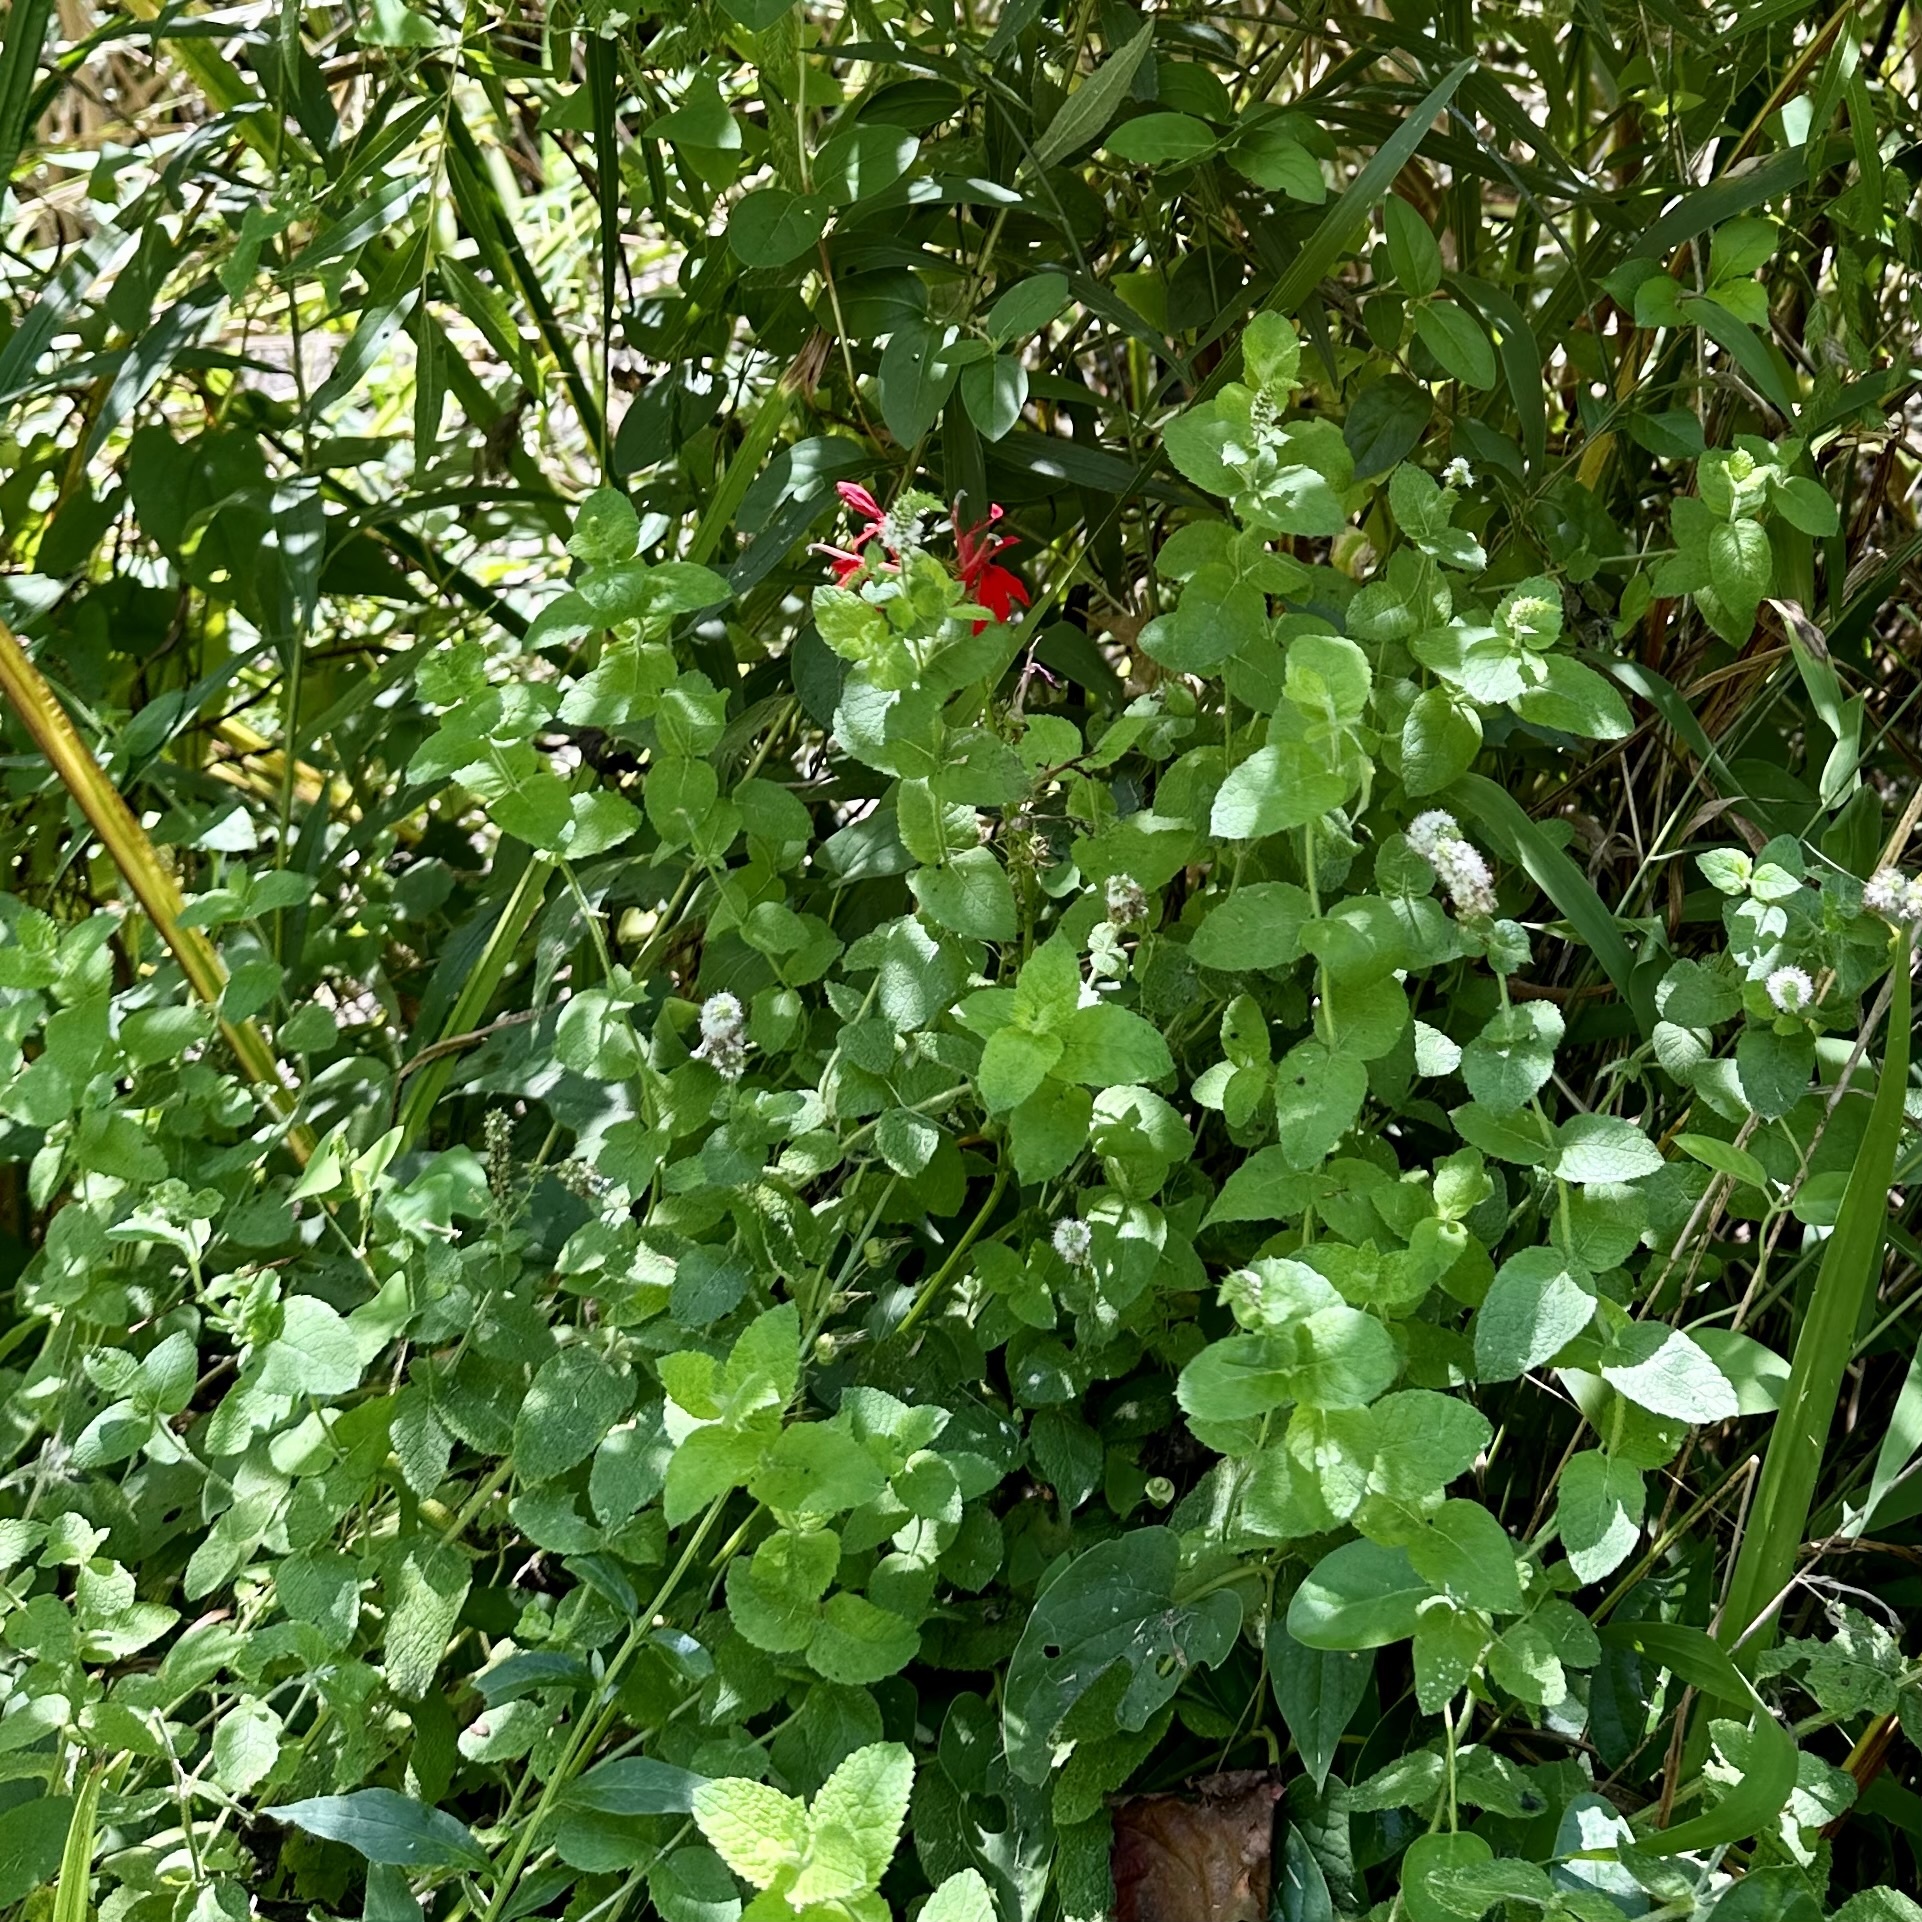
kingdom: Plantae
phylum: Tracheophyta
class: Magnoliopsida
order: Asterales
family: Campanulaceae
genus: Lobelia
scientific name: Lobelia cardinalis
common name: Cardinal flower
